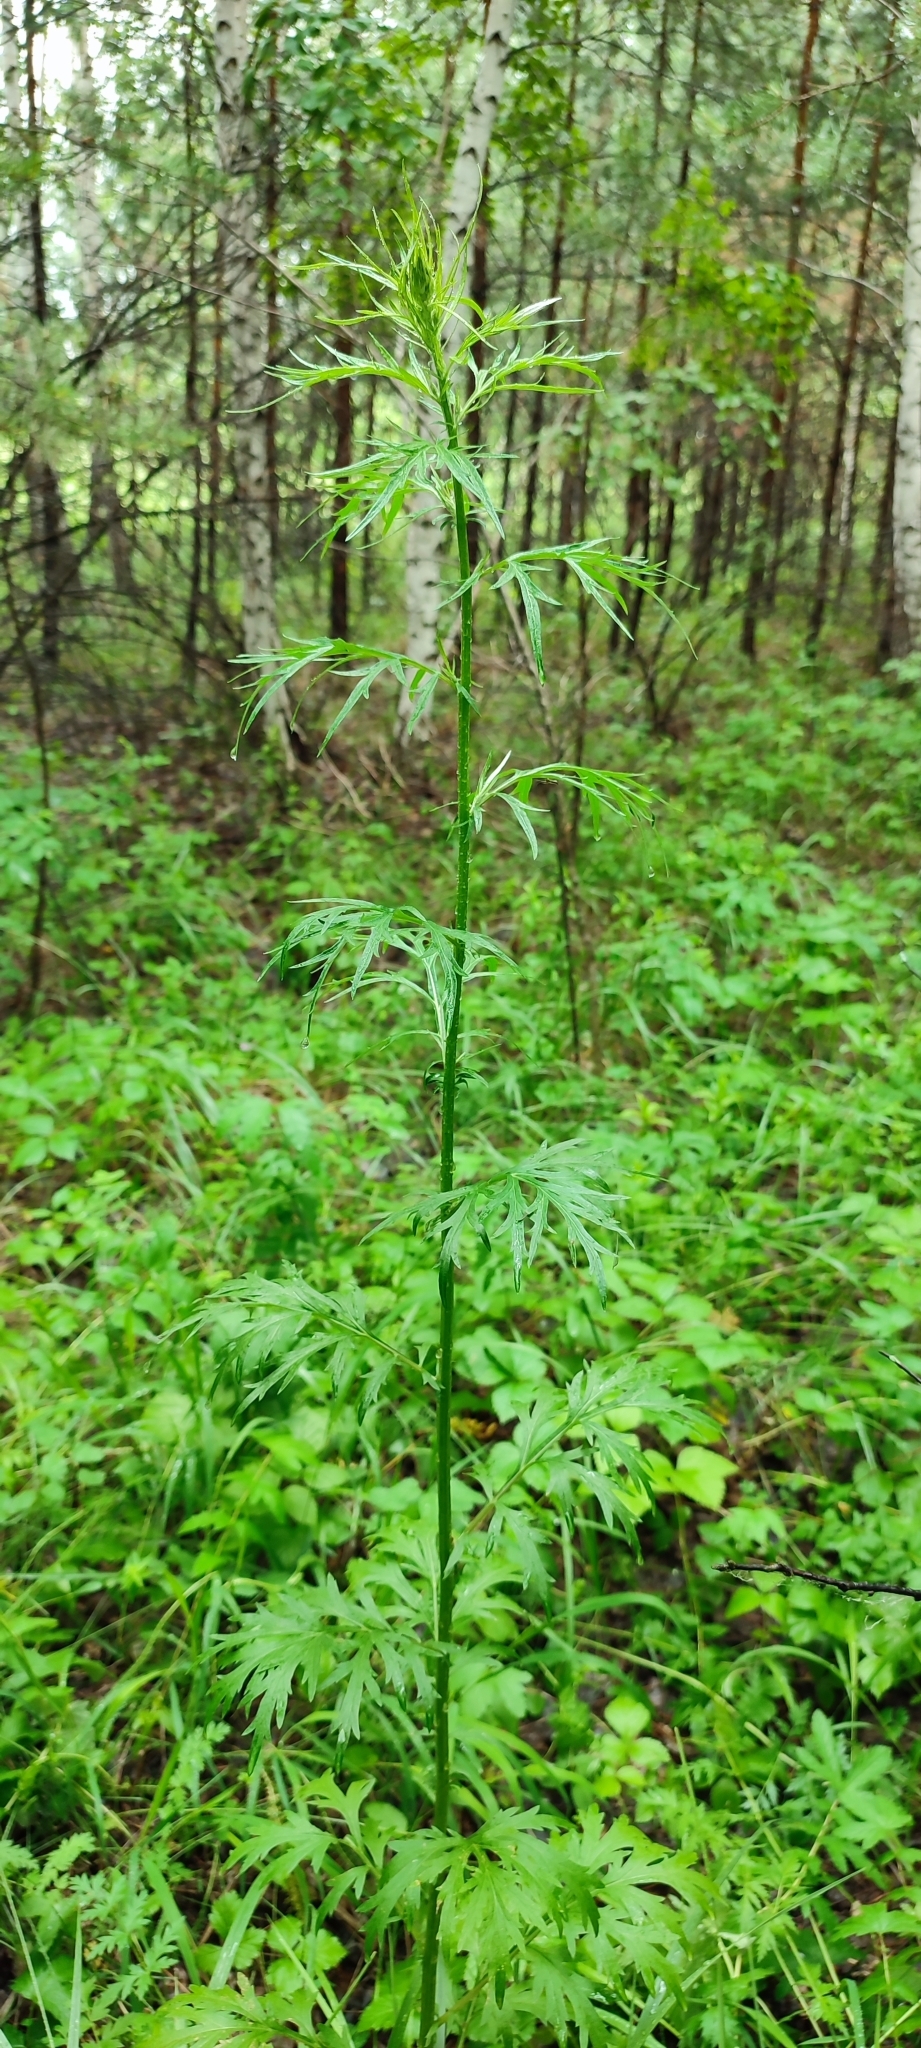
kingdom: Plantae
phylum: Tracheophyta
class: Magnoliopsida
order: Asterales
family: Asteraceae
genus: Artemisia
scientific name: Artemisia vulgaris
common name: Mugwort
